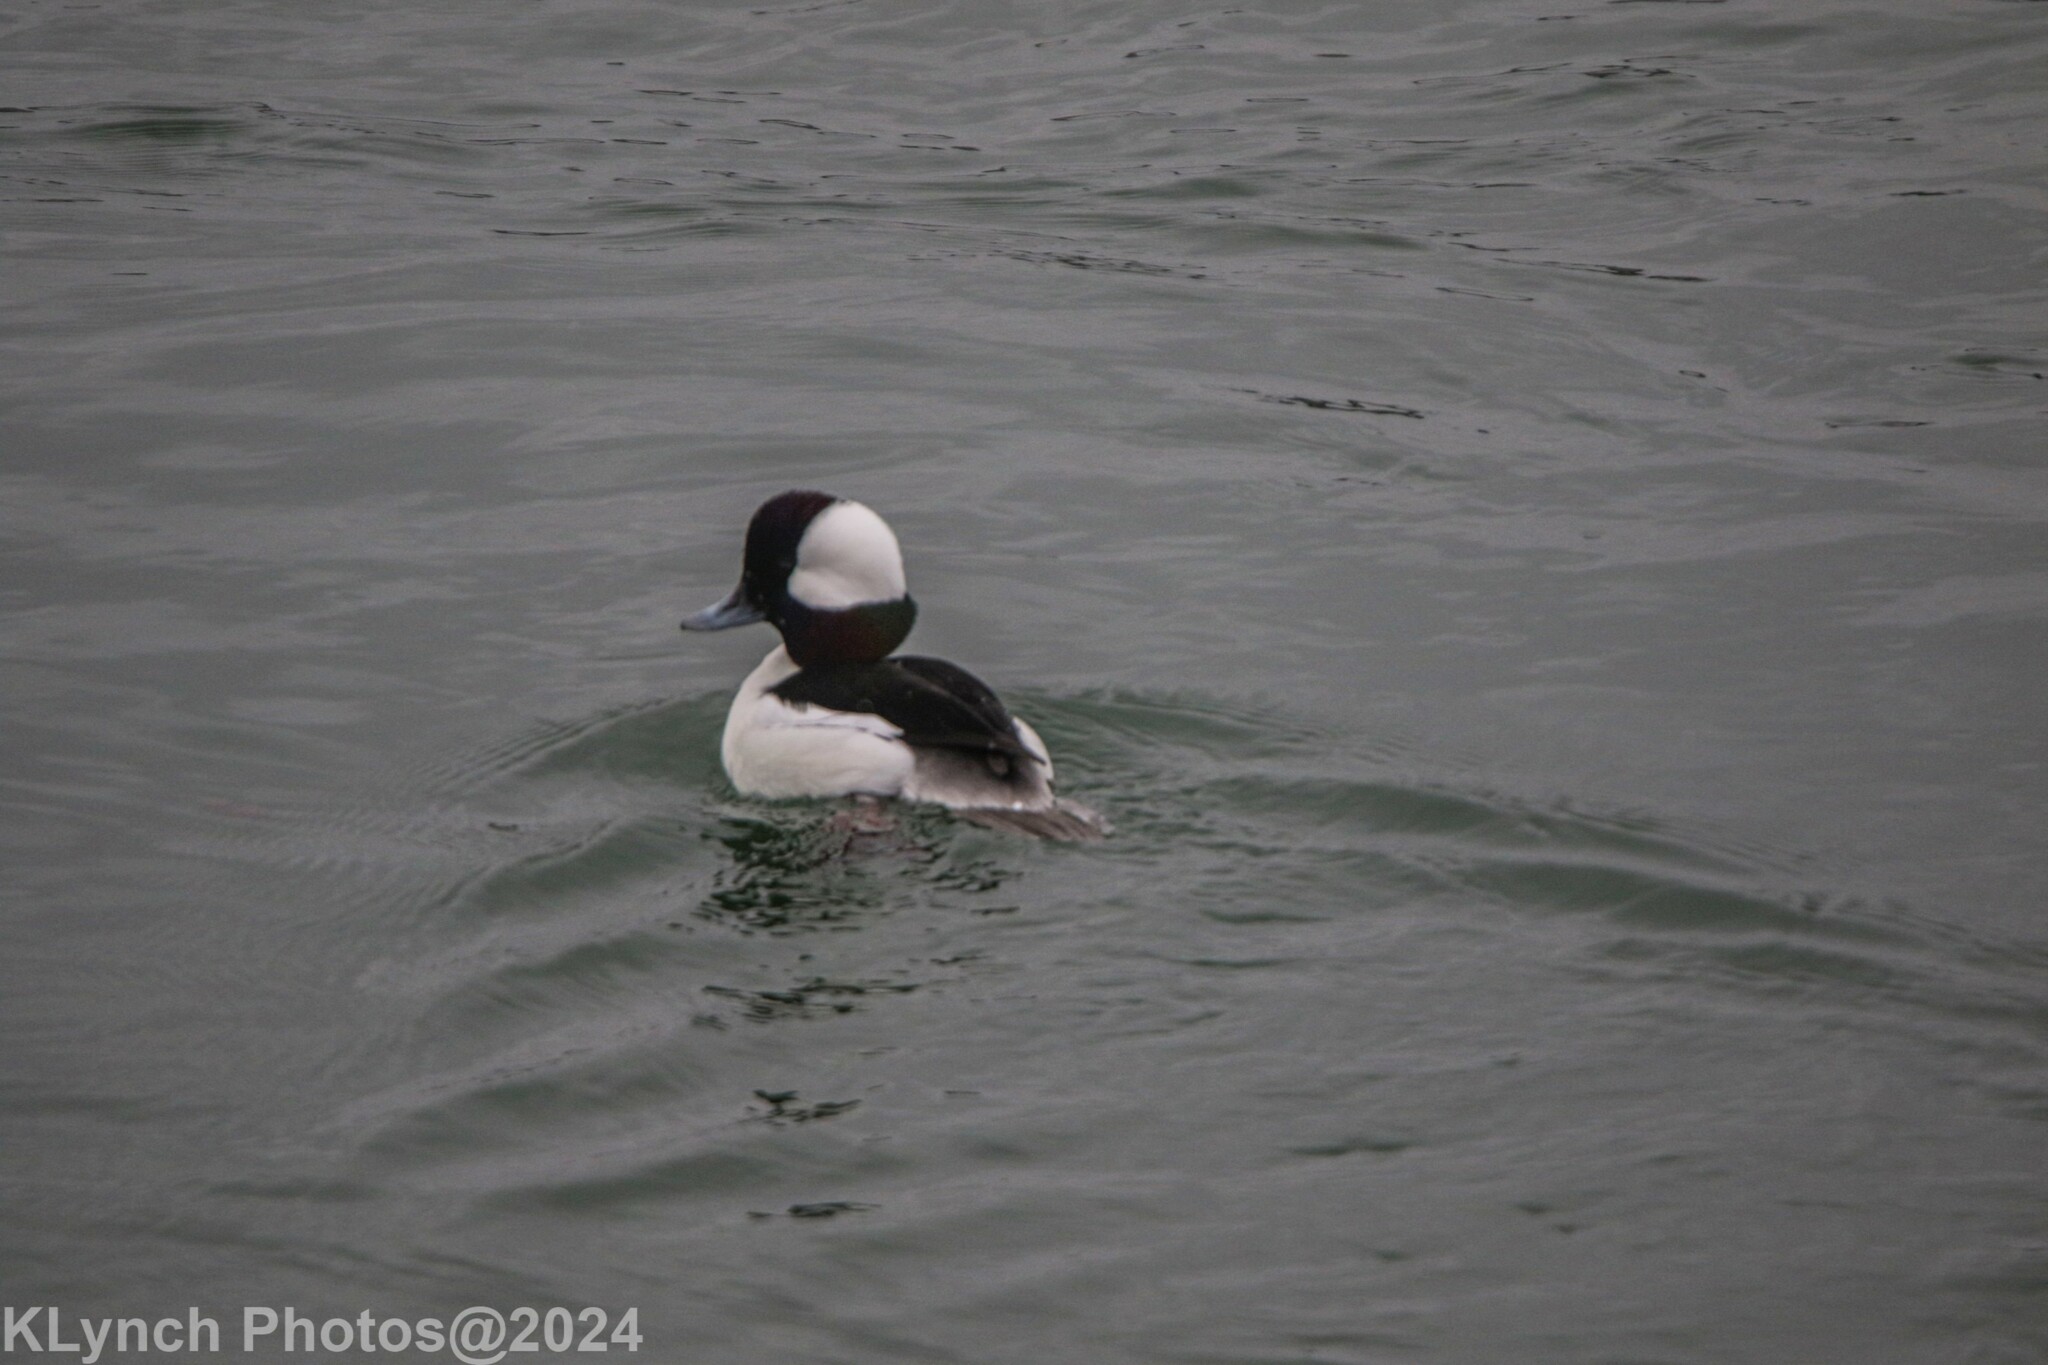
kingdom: Animalia
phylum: Chordata
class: Aves
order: Anseriformes
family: Anatidae
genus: Bucephala
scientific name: Bucephala albeola
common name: Bufflehead
